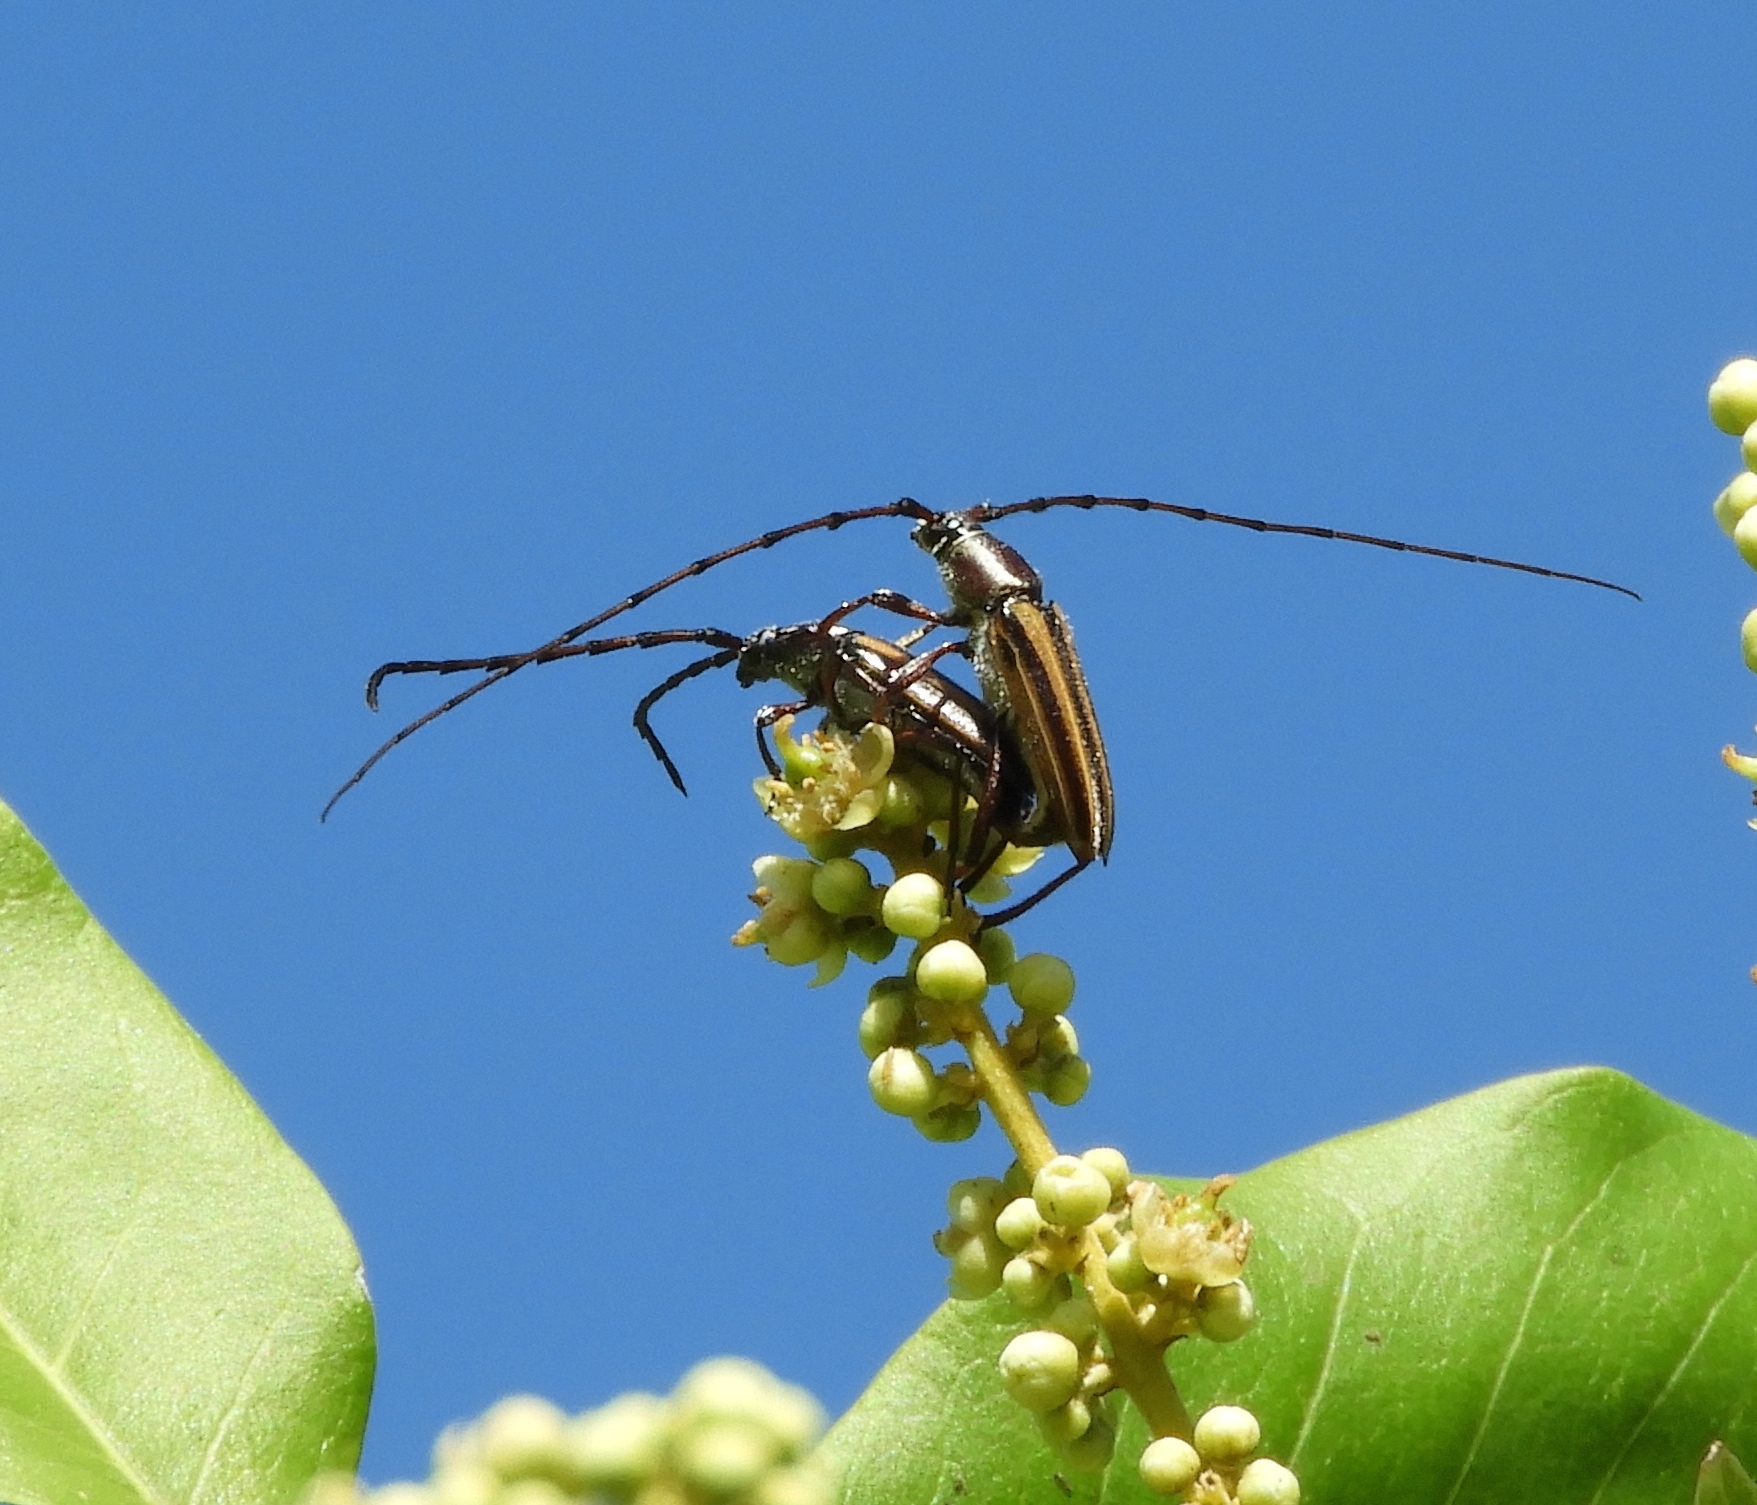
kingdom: Animalia
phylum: Arthropoda
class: Insecta
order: Coleoptera
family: Cerambycidae
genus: Sphaenothecus
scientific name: Sphaenothecus
